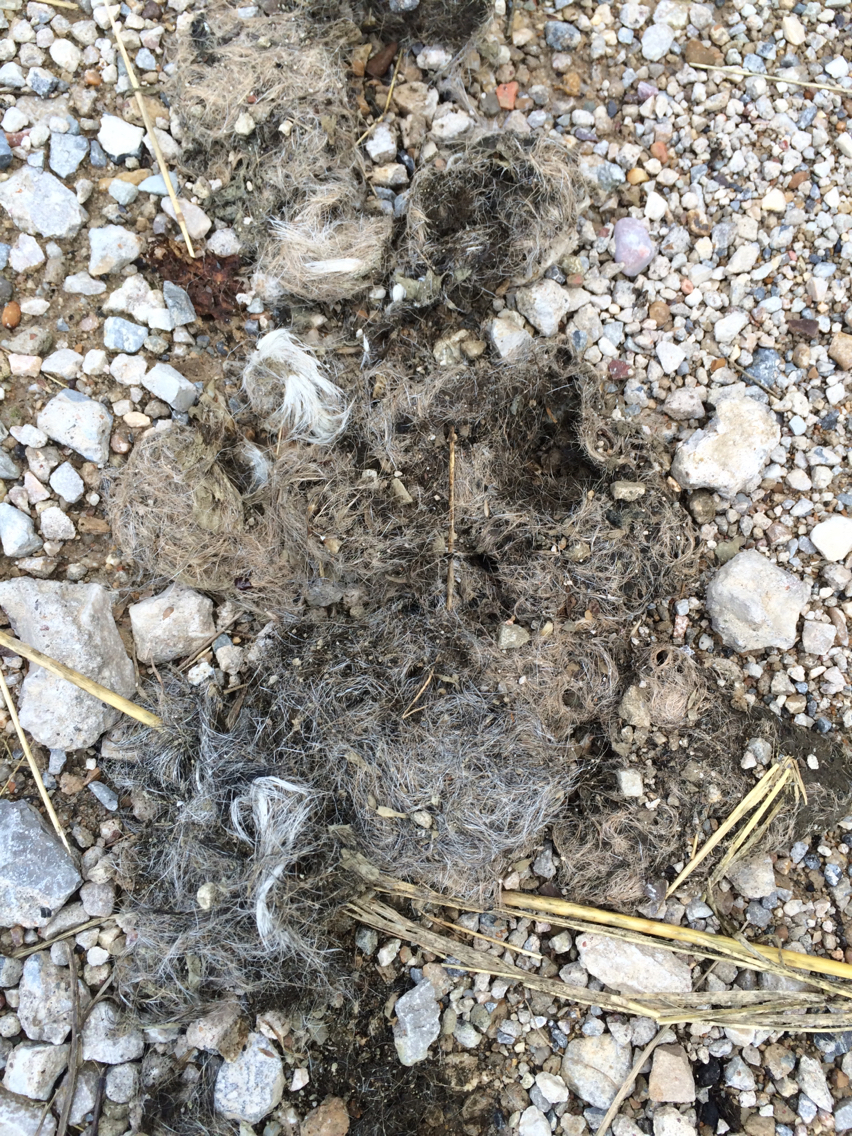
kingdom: Animalia
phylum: Chordata
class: Mammalia
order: Carnivora
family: Canidae
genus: Canis
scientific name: Canis latrans
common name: Coyote
